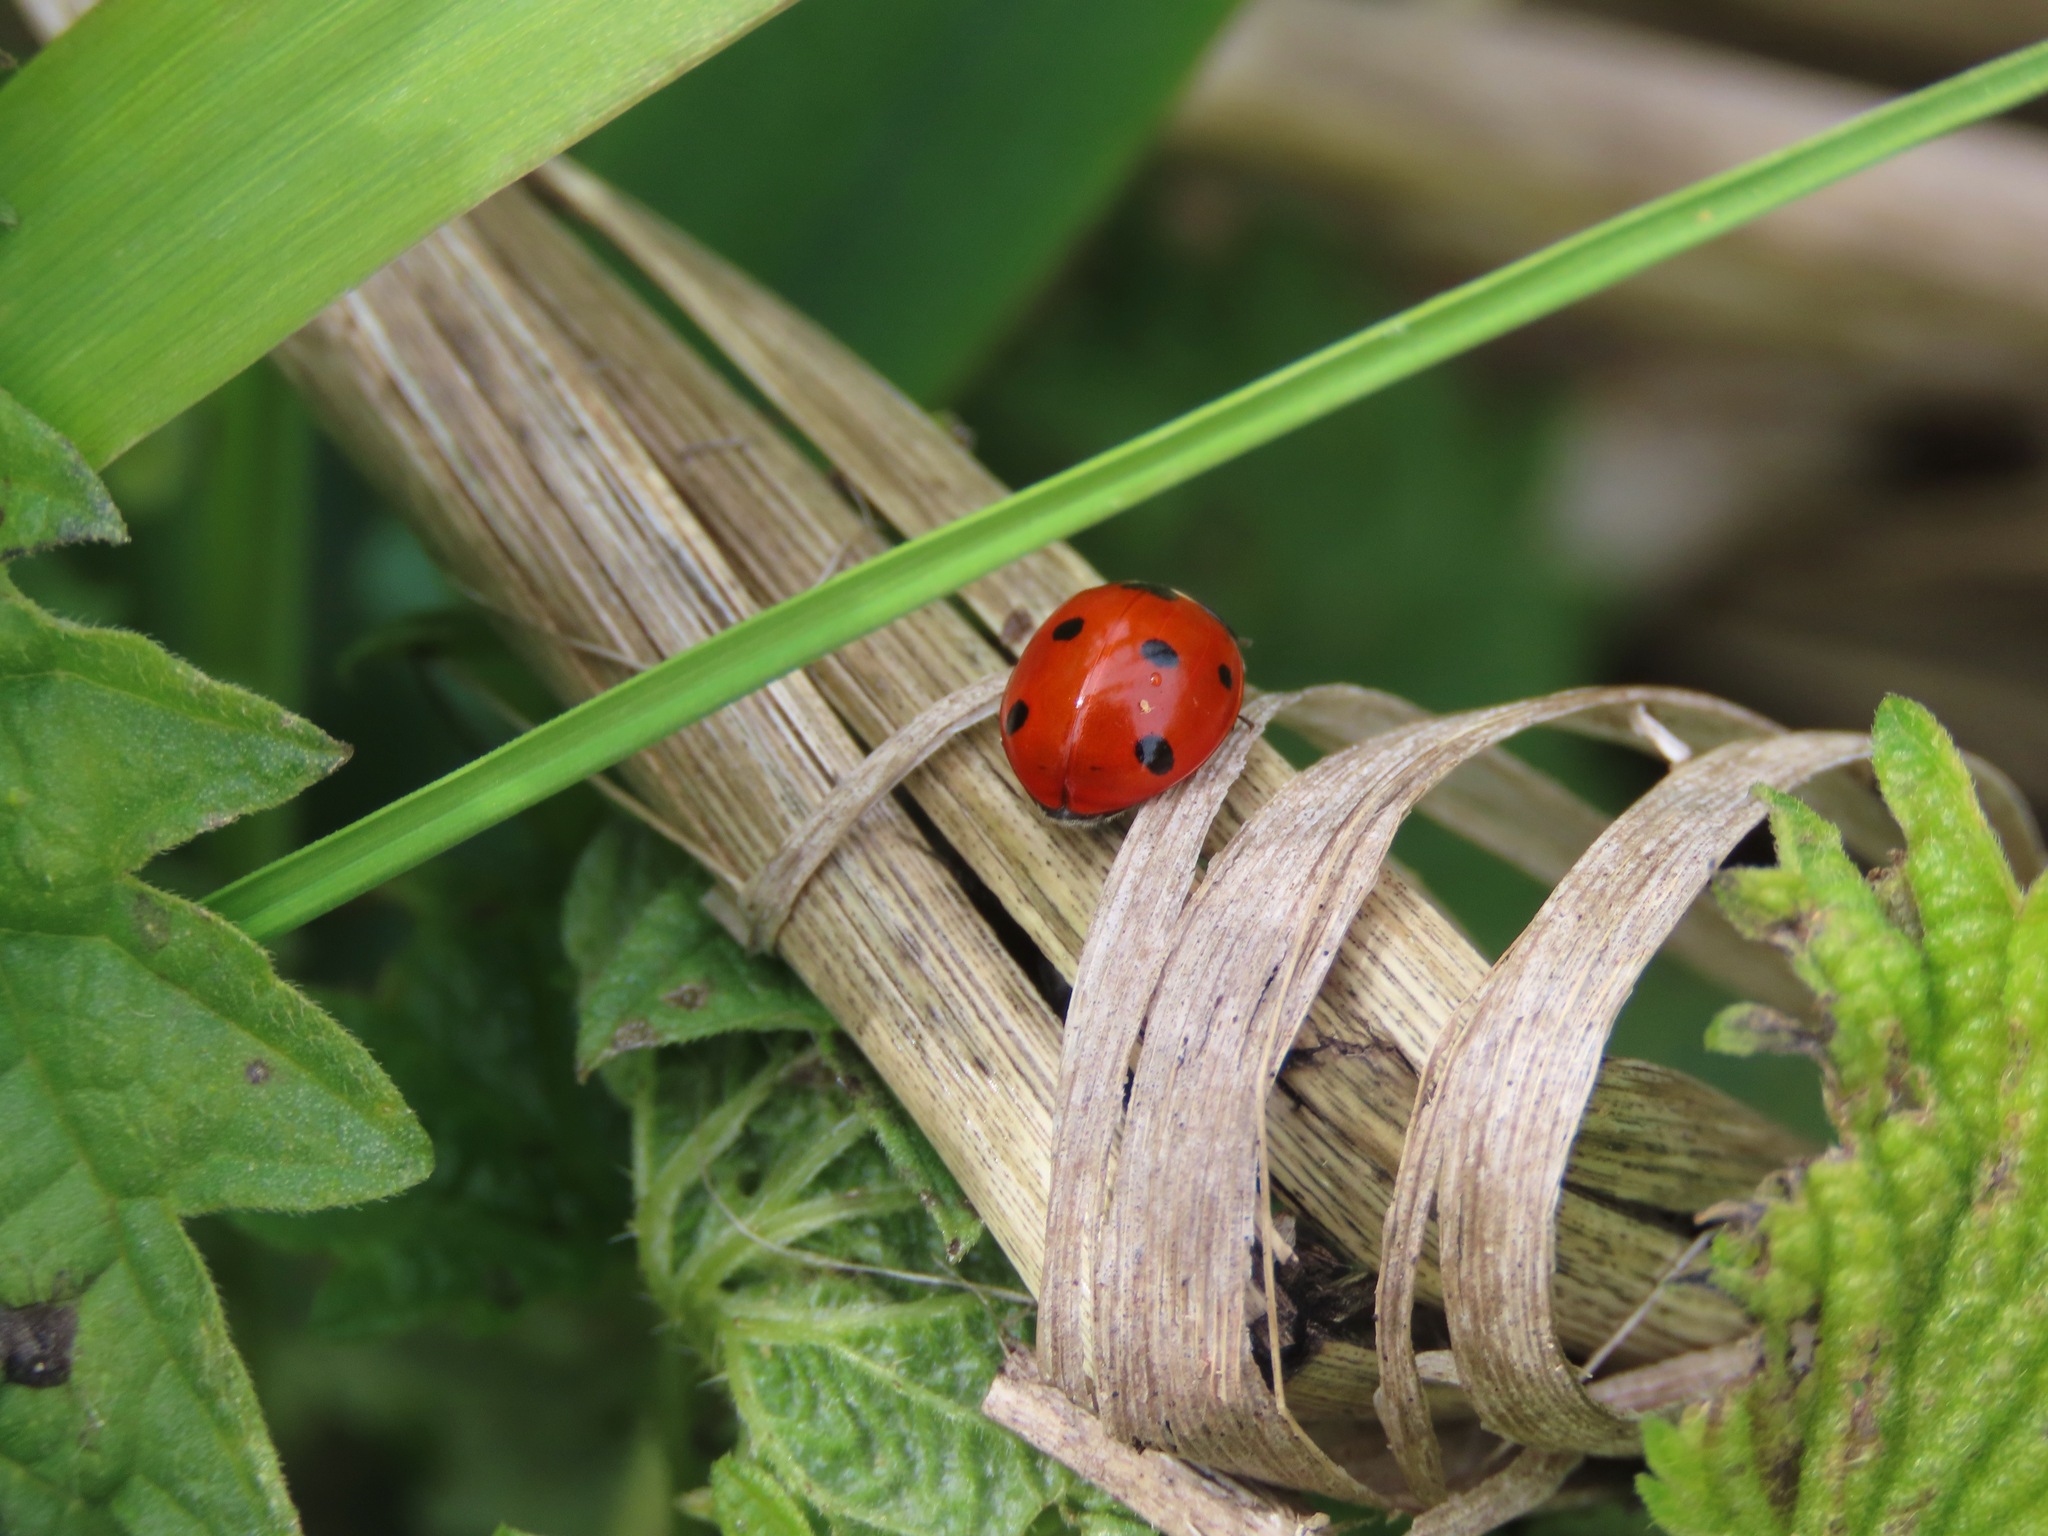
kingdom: Animalia
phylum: Arthropoda
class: Insecta
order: Coleoptera
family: Coccinellidae
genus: Coccinella
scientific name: Coccinella septempunctata
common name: Sevenspotted lady beetle
